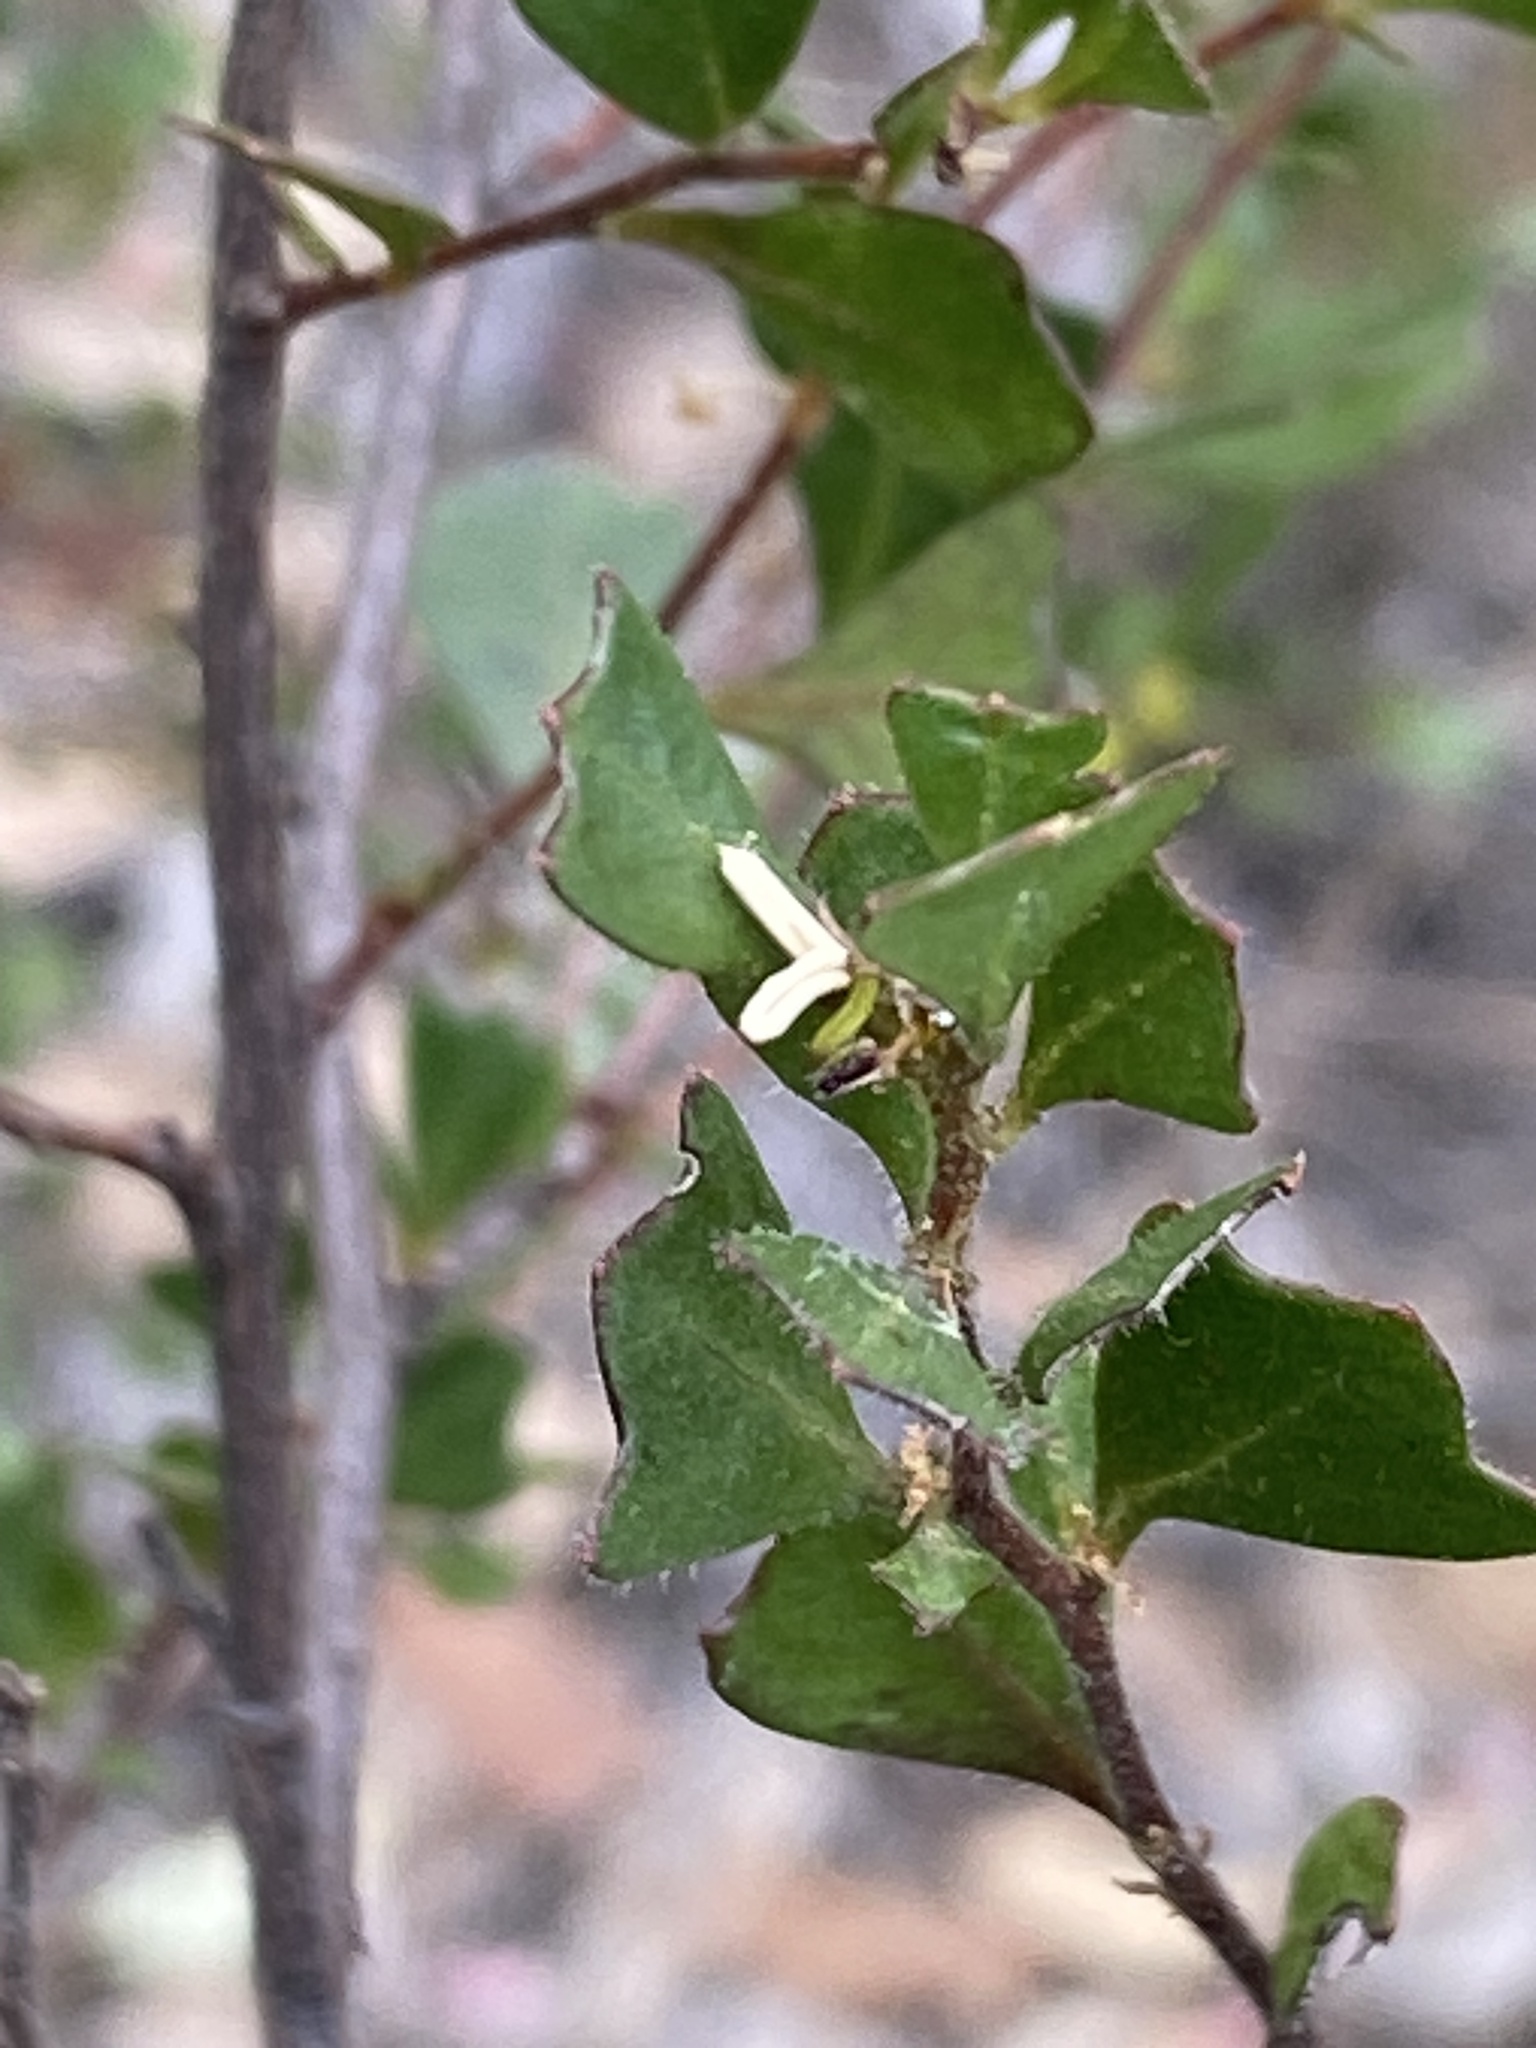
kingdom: Plantae
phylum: Tracheophyta
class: Magnoliopsida
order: Sapindales
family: Sapindaceae
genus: Dodonaea
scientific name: Dodonaea triangularis
